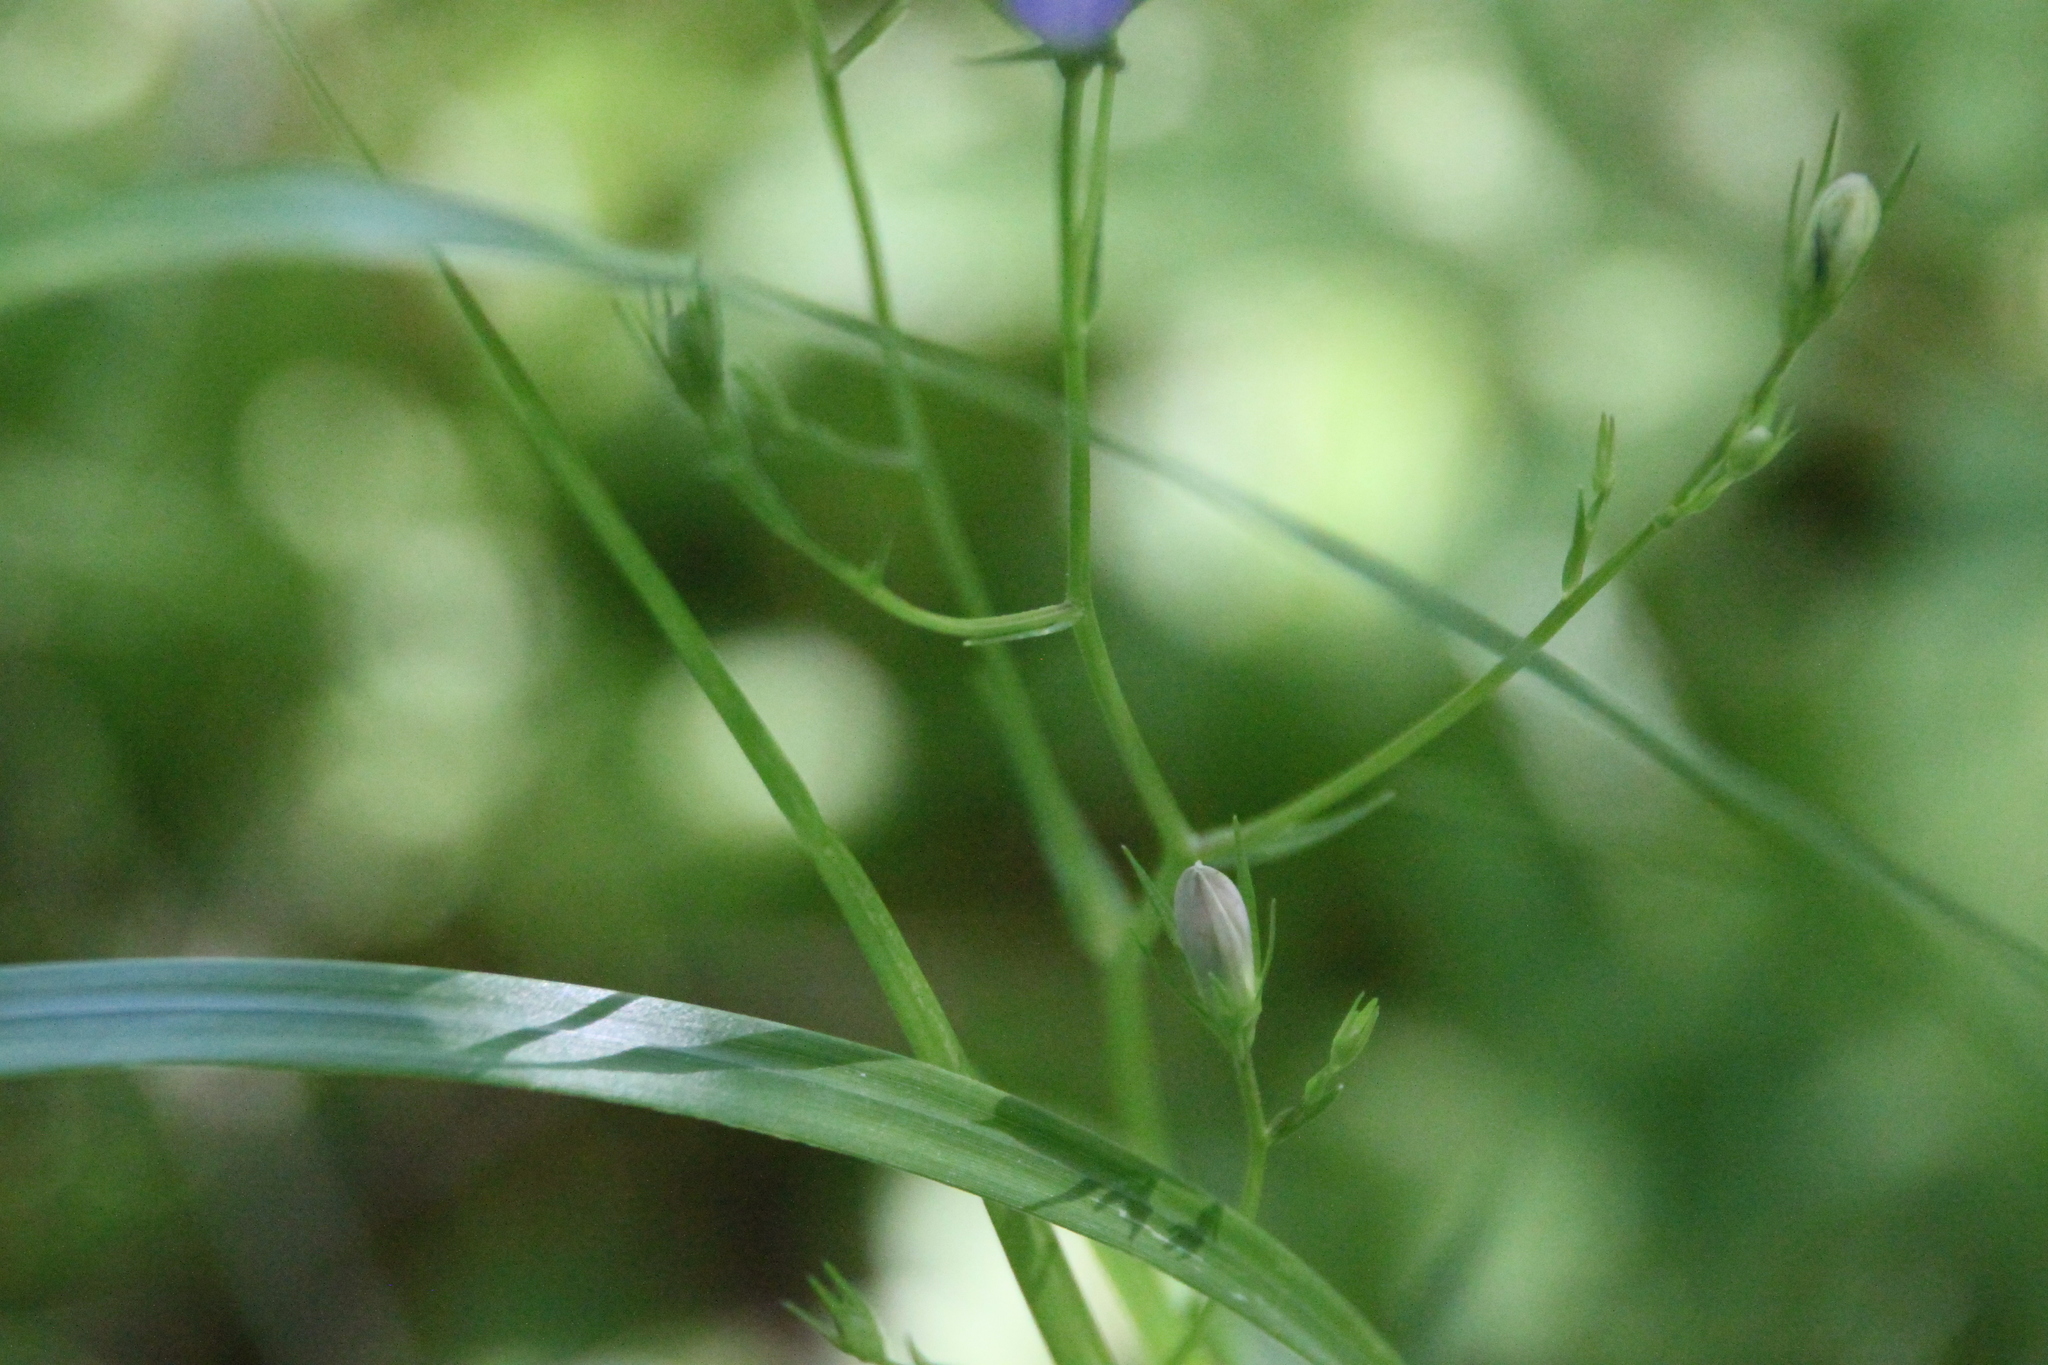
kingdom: Plantae
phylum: Tracheophyta
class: Magnoliopsida
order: Asterales
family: Campanulaceae
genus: Campanula
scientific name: Campanula patula
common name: Spreading bellflower
